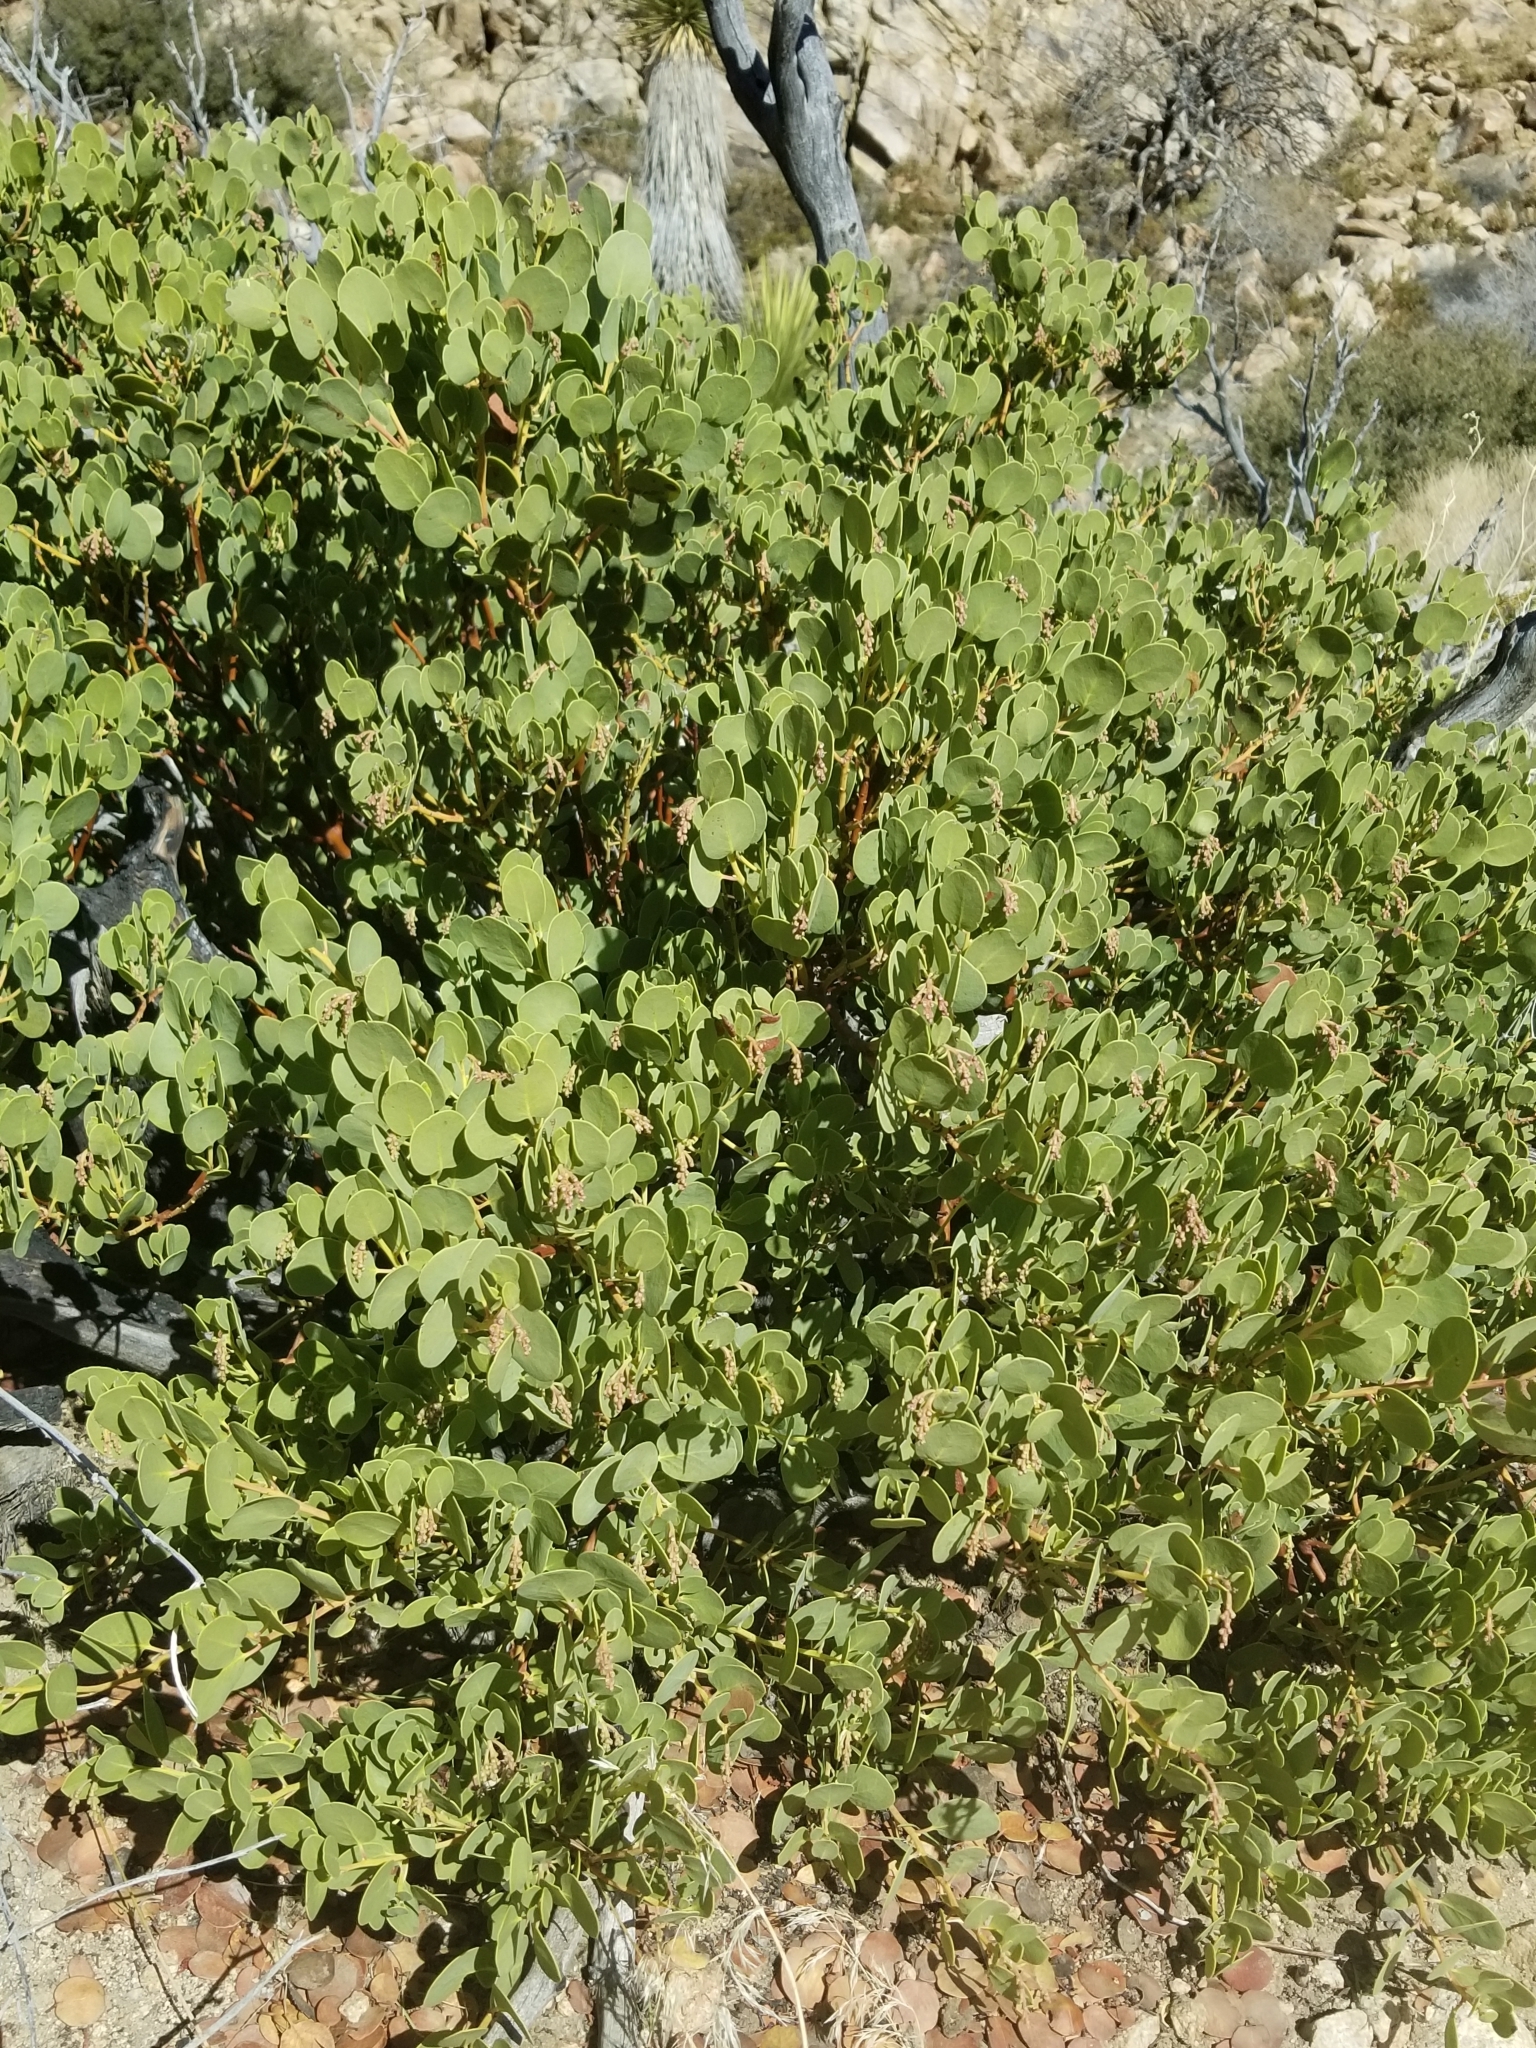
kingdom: Plantae
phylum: Tracheophyta
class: Magnoliopsida
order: Ericales
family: Ericaceae
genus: Arctostaphylos
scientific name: Arctostaphylos glauca
